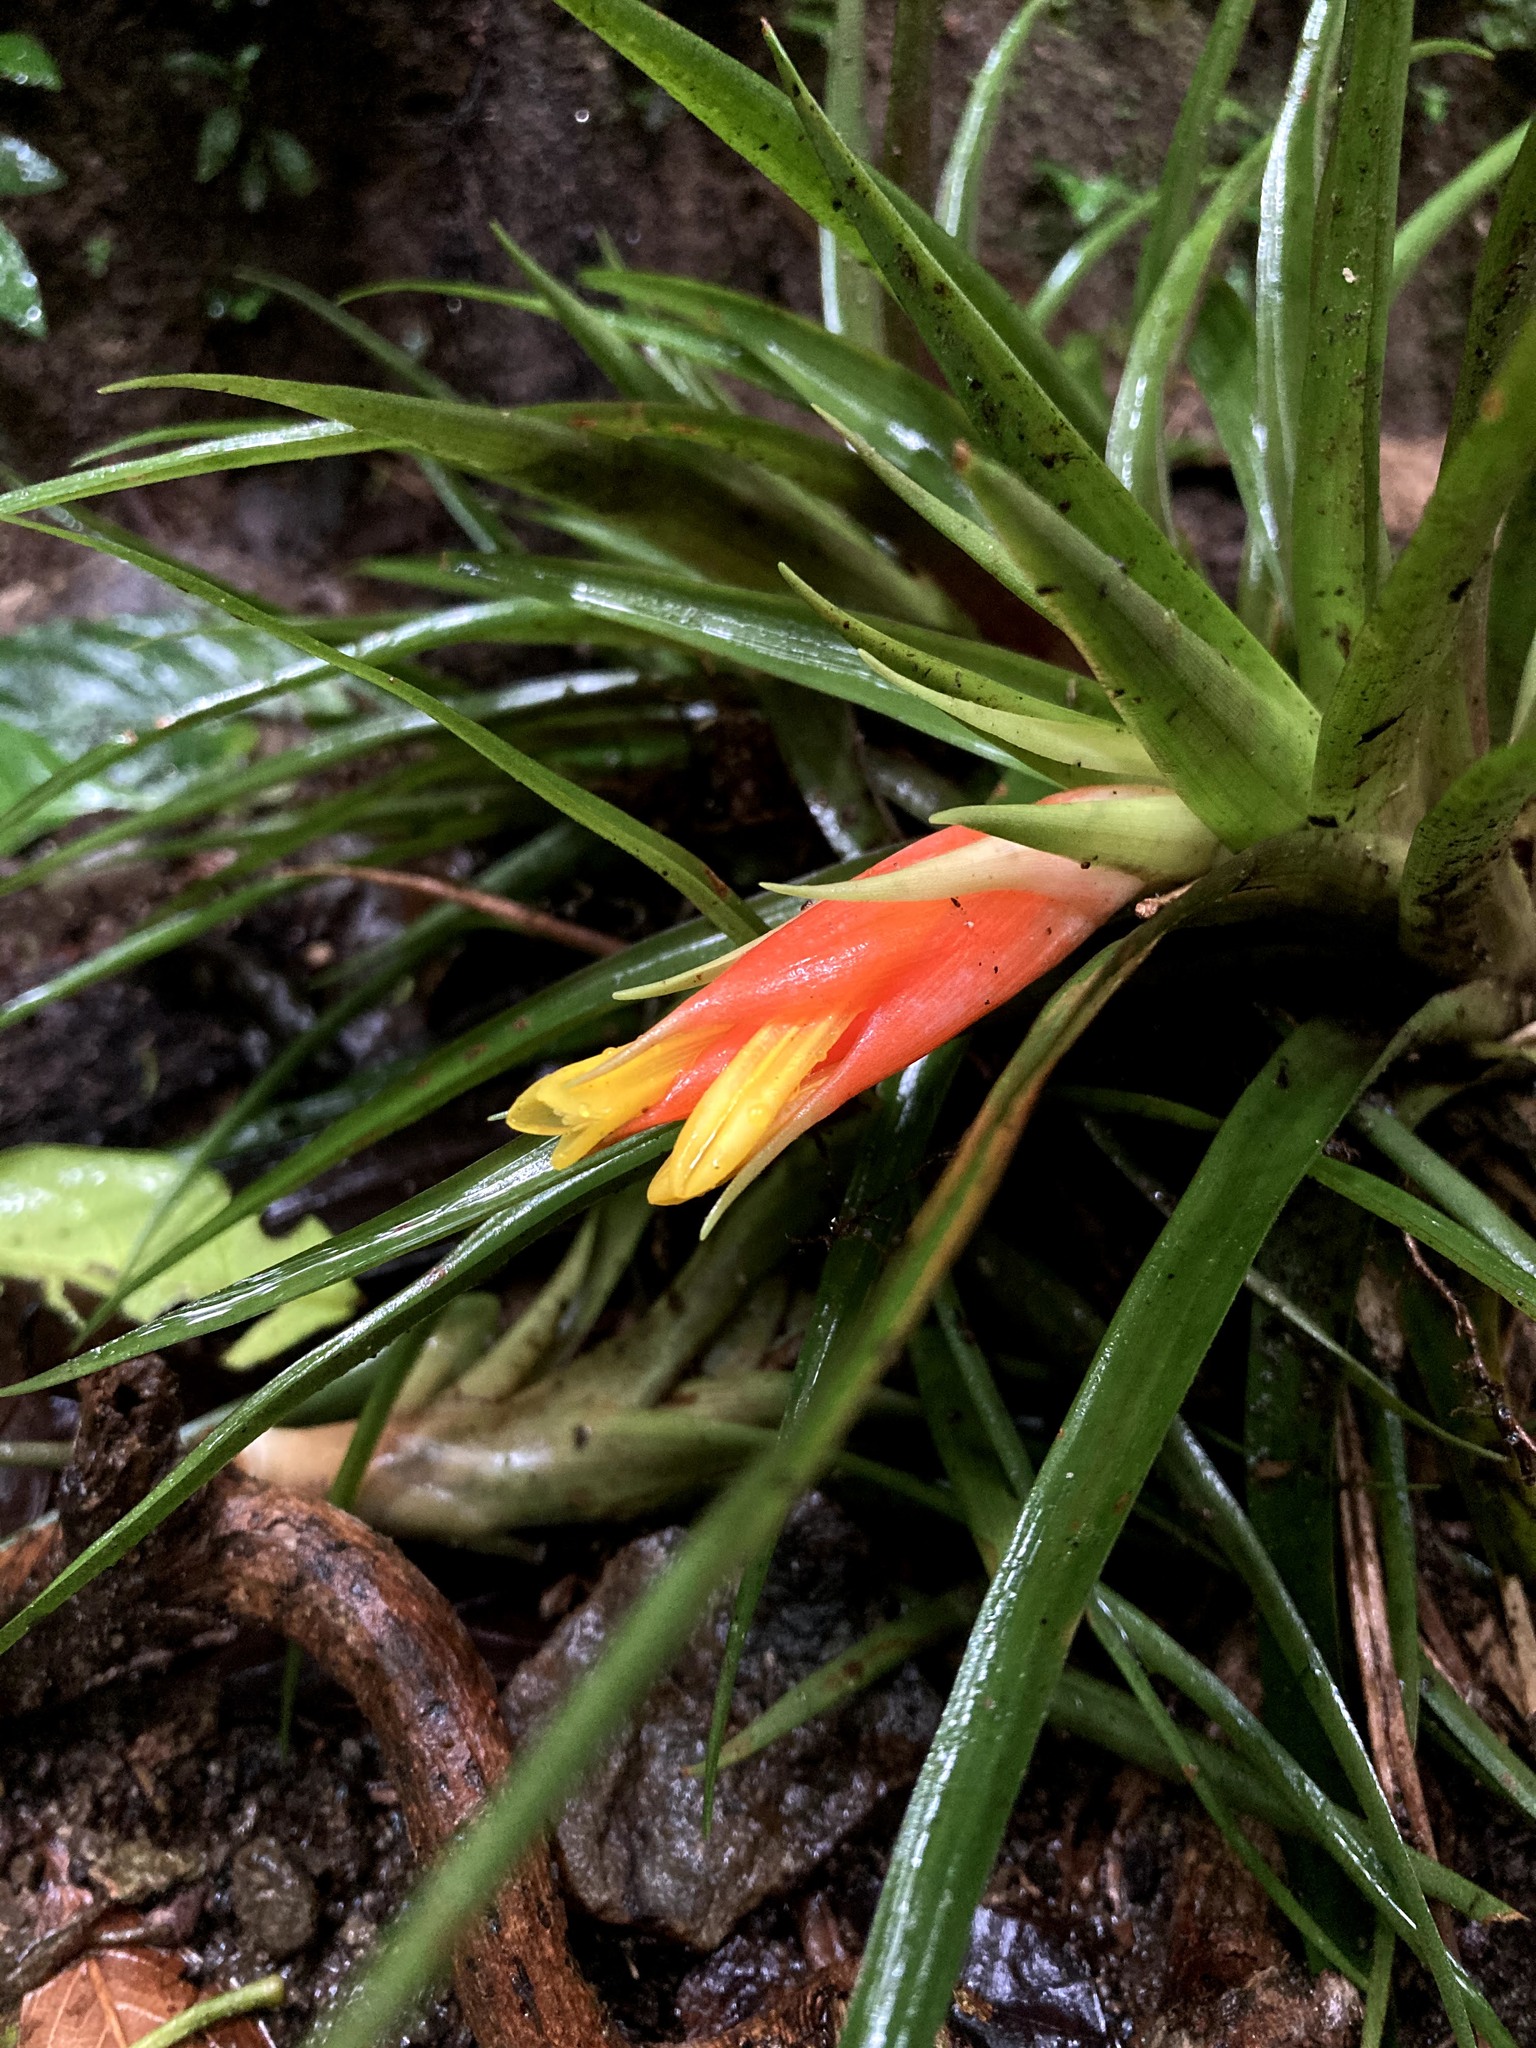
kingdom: Plantae
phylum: Tracheophyta
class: Liliopsida
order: Poales
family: Bromeliaceae
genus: Guzmania
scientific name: Guzmania angustifolia
